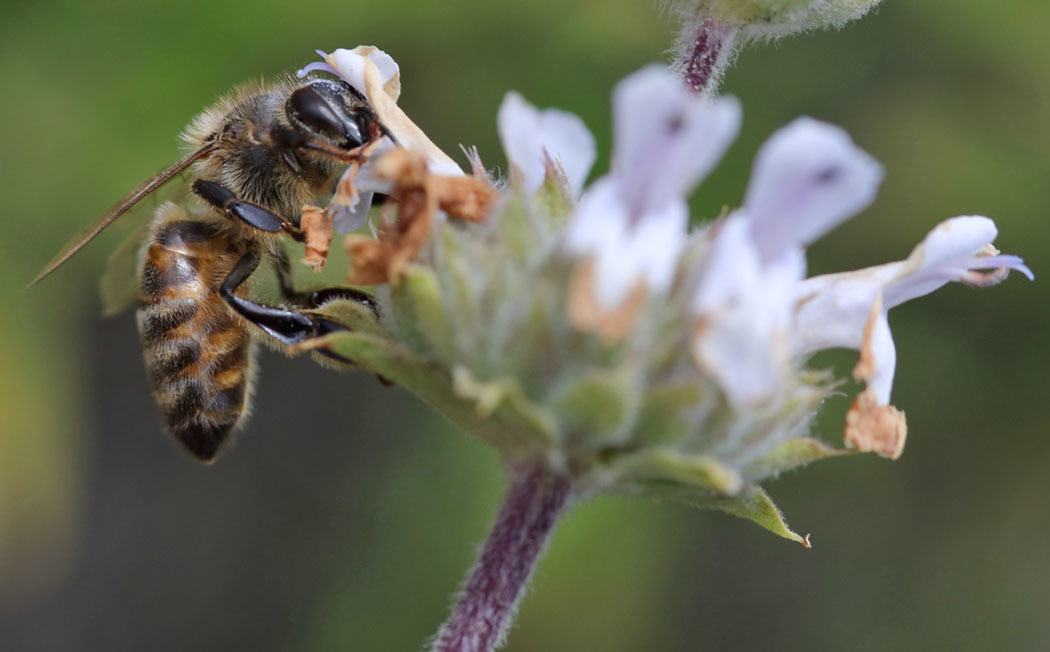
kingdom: Animalia
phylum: Arthropoda
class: Insecta
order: Hymenoptera
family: Apidae
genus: Apis
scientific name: Apis mellifera
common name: Honey bee
